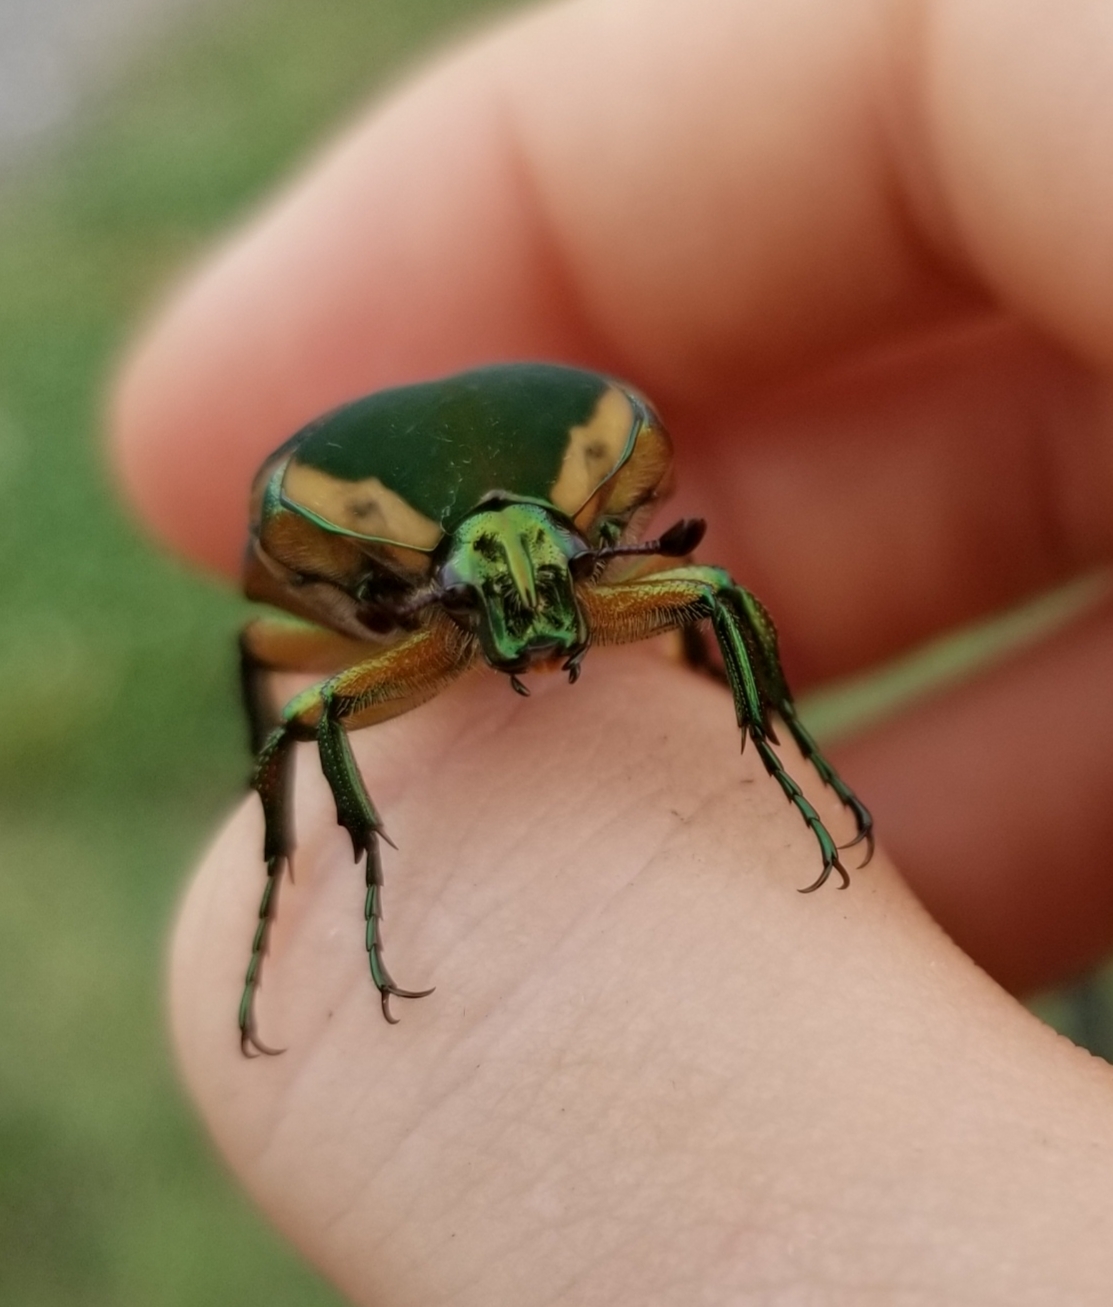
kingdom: Animalia
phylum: Arthropoda
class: Insecta
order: Coleoptera
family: Scarabaeidae
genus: Cotinis
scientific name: Cotinis nitida
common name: Common green june beetle
